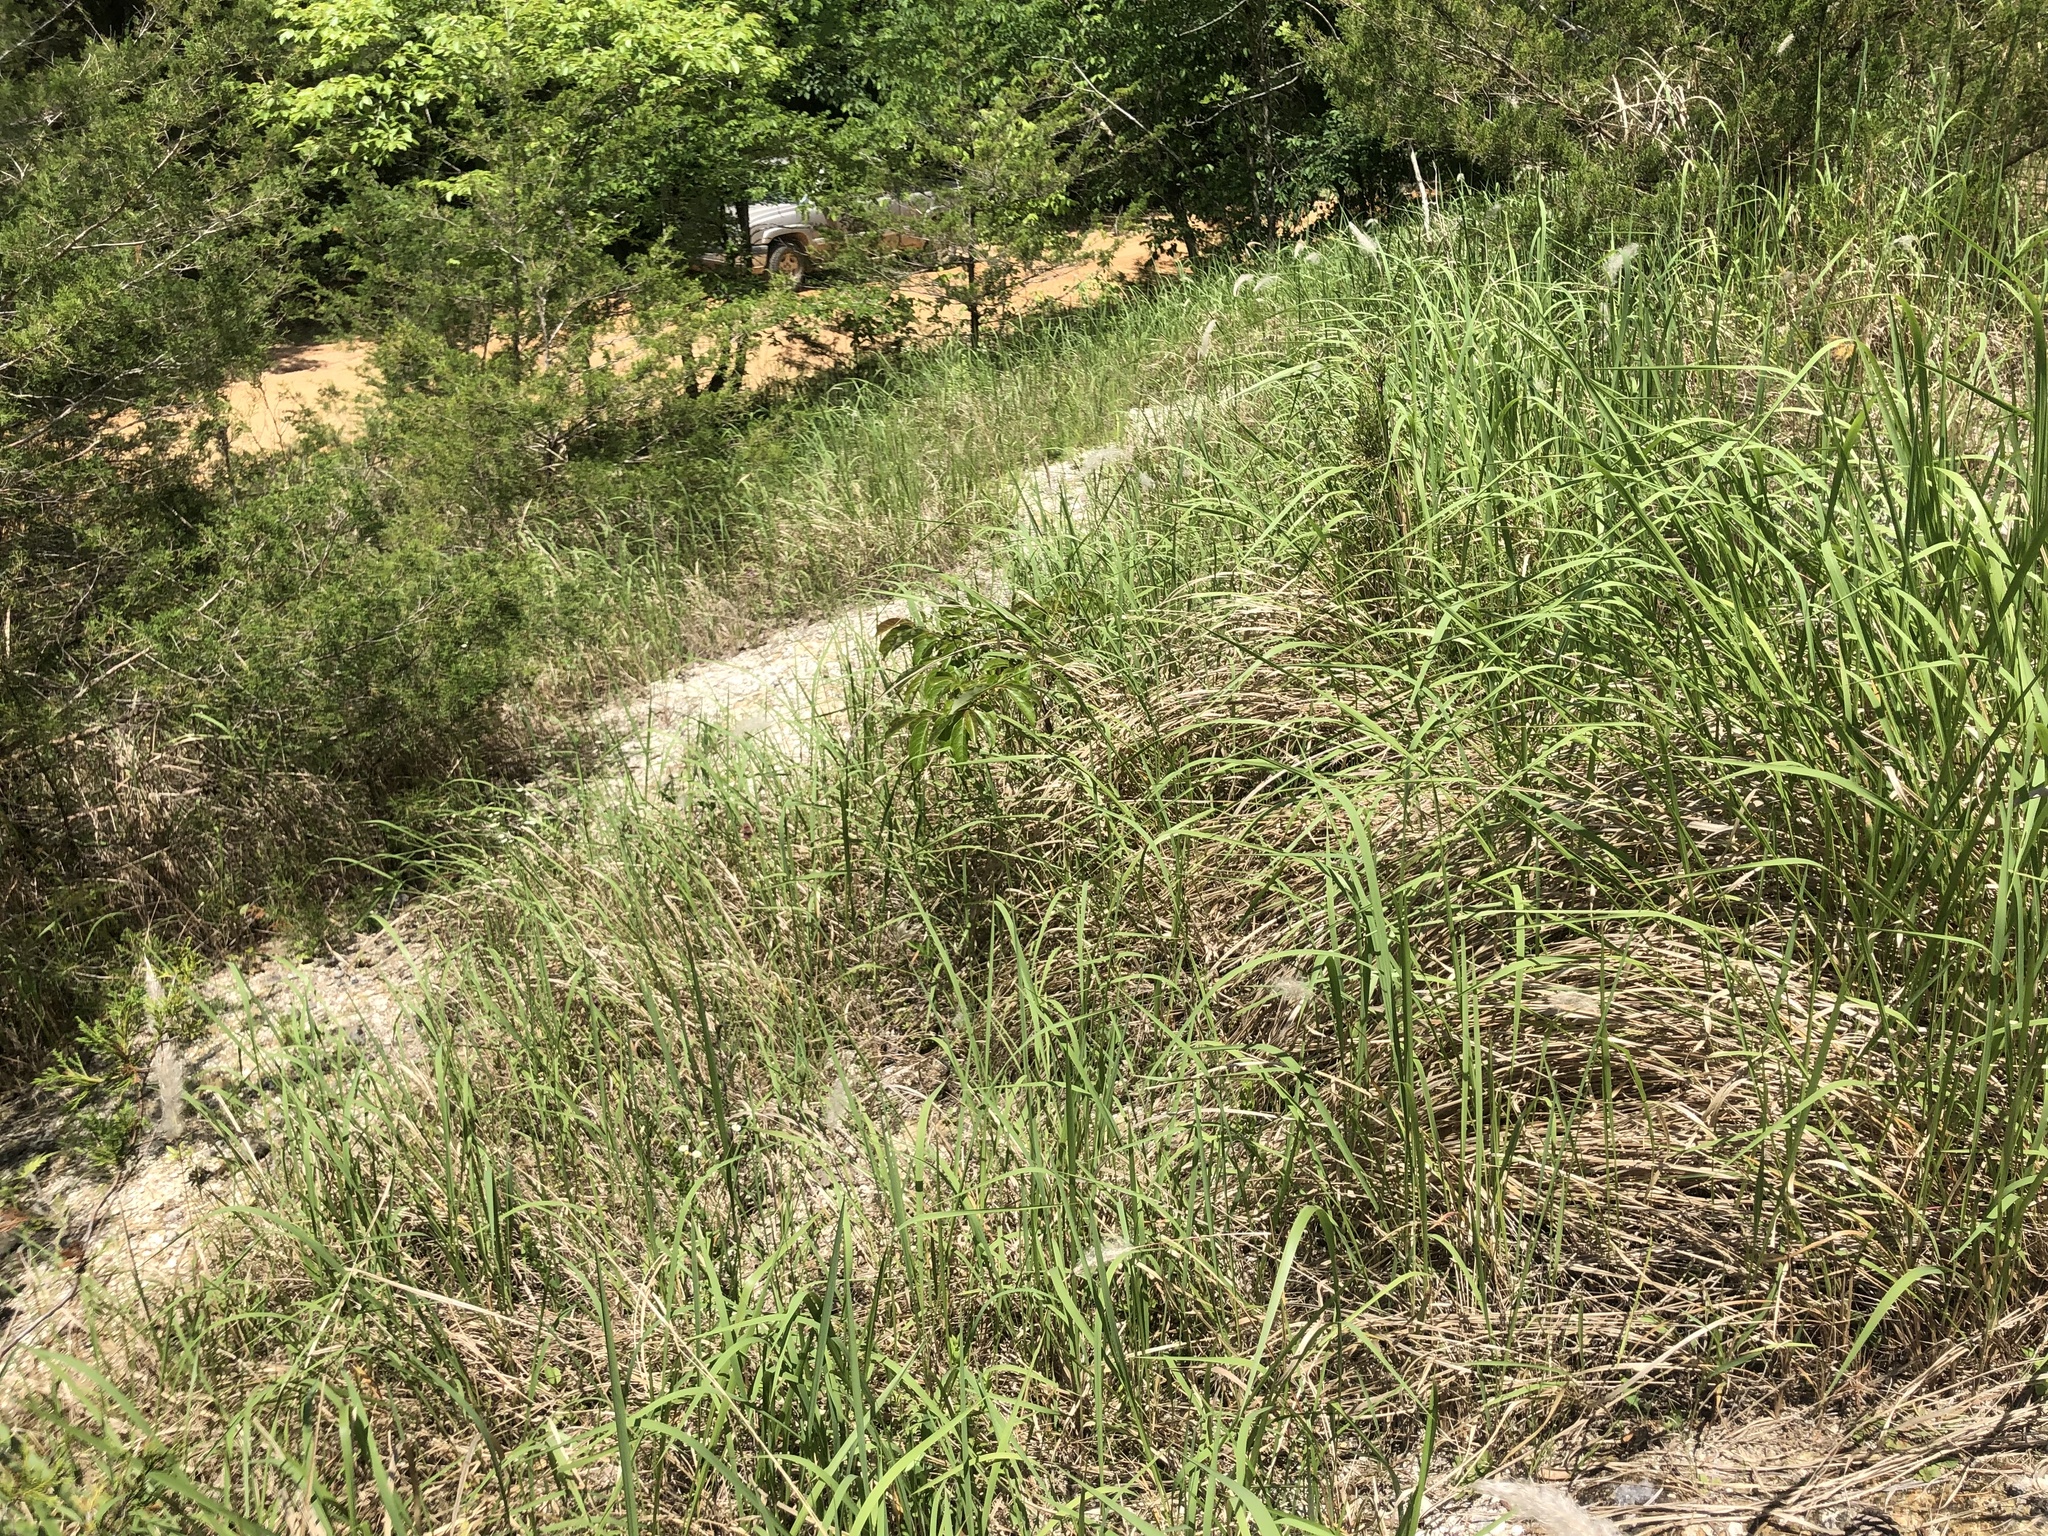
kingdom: Plantae
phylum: Tracheophyta
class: Liliopsida
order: Poales
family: Poaceae
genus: Imperata
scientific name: Imperata cylindrica
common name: Cogongrass
